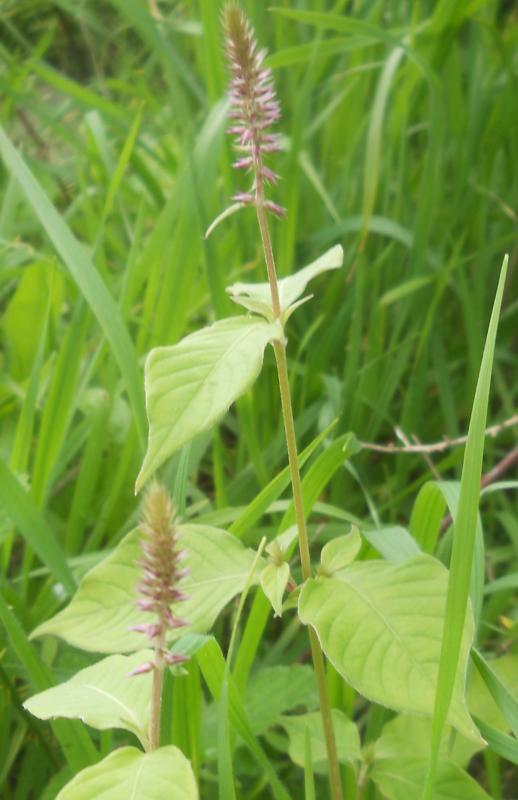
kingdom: Plantae
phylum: Tracheophyta
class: Magnoliopsida
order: Caryophyllales
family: Amaranthaceae
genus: Achyranthes
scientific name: Achyranthes sicula
